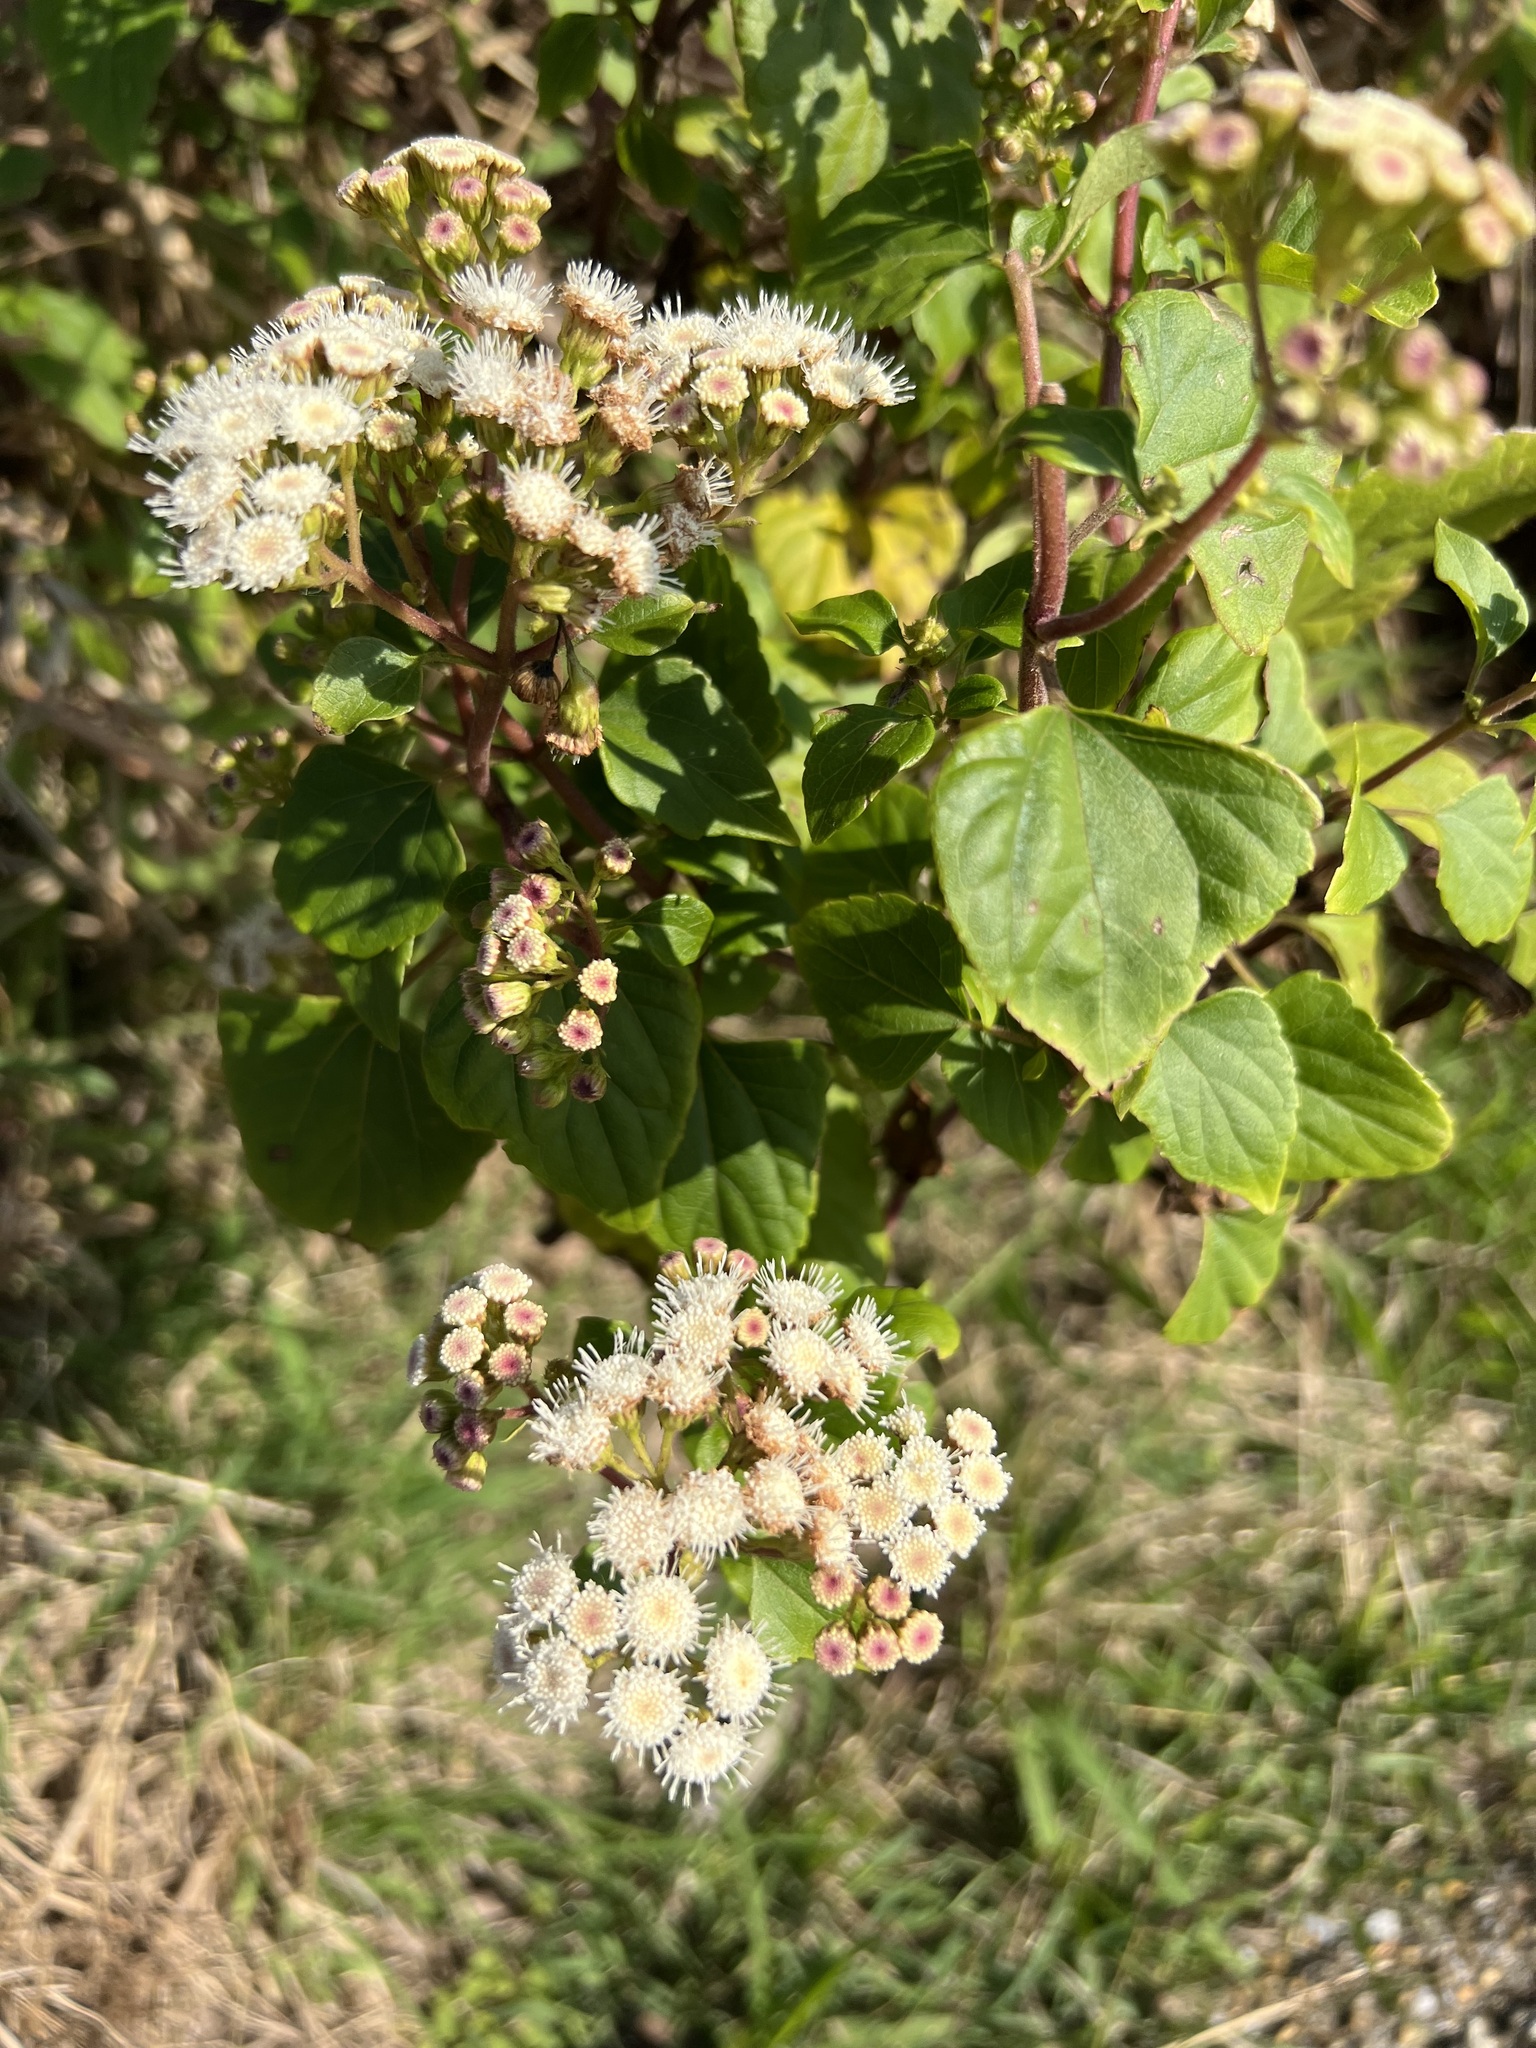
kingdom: Plantae
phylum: Tracheophyta
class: Magnoliopsida
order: Asterales
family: Asteraceae
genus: Ageratina
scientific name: Ageratina adenophora
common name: Sticky snakeroot
